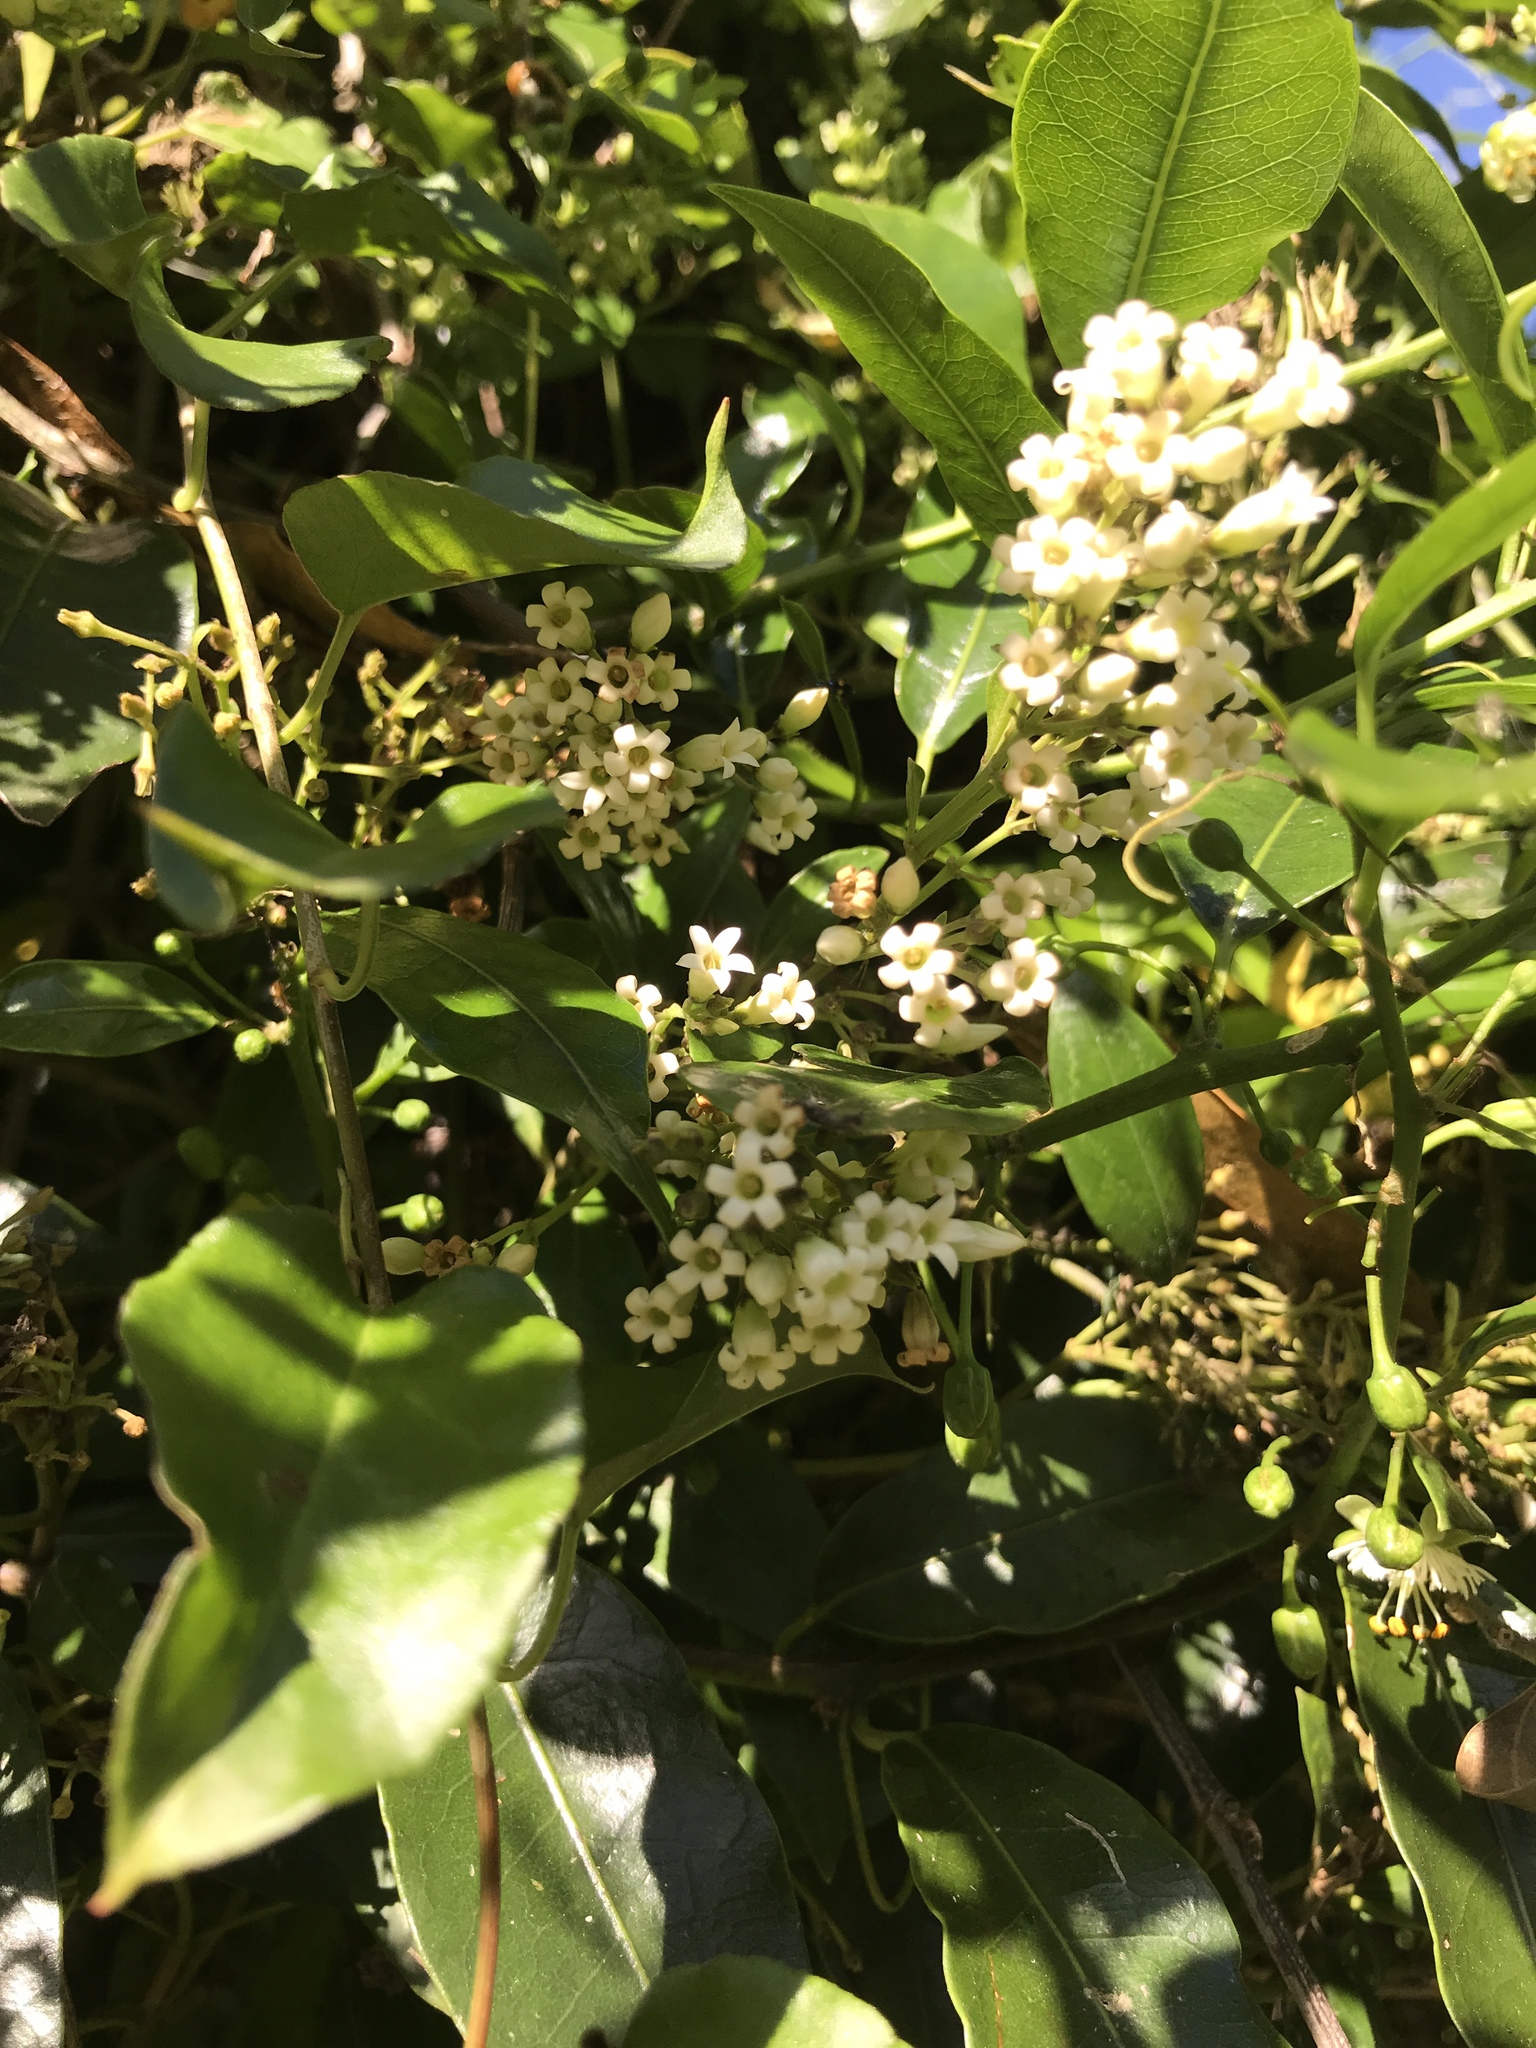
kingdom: Plantae
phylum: Tracheophyta
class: Magnoliopsida
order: Gentianales
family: Apocynaceae
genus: Parsonsia
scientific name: Parsonsia heterophylla
